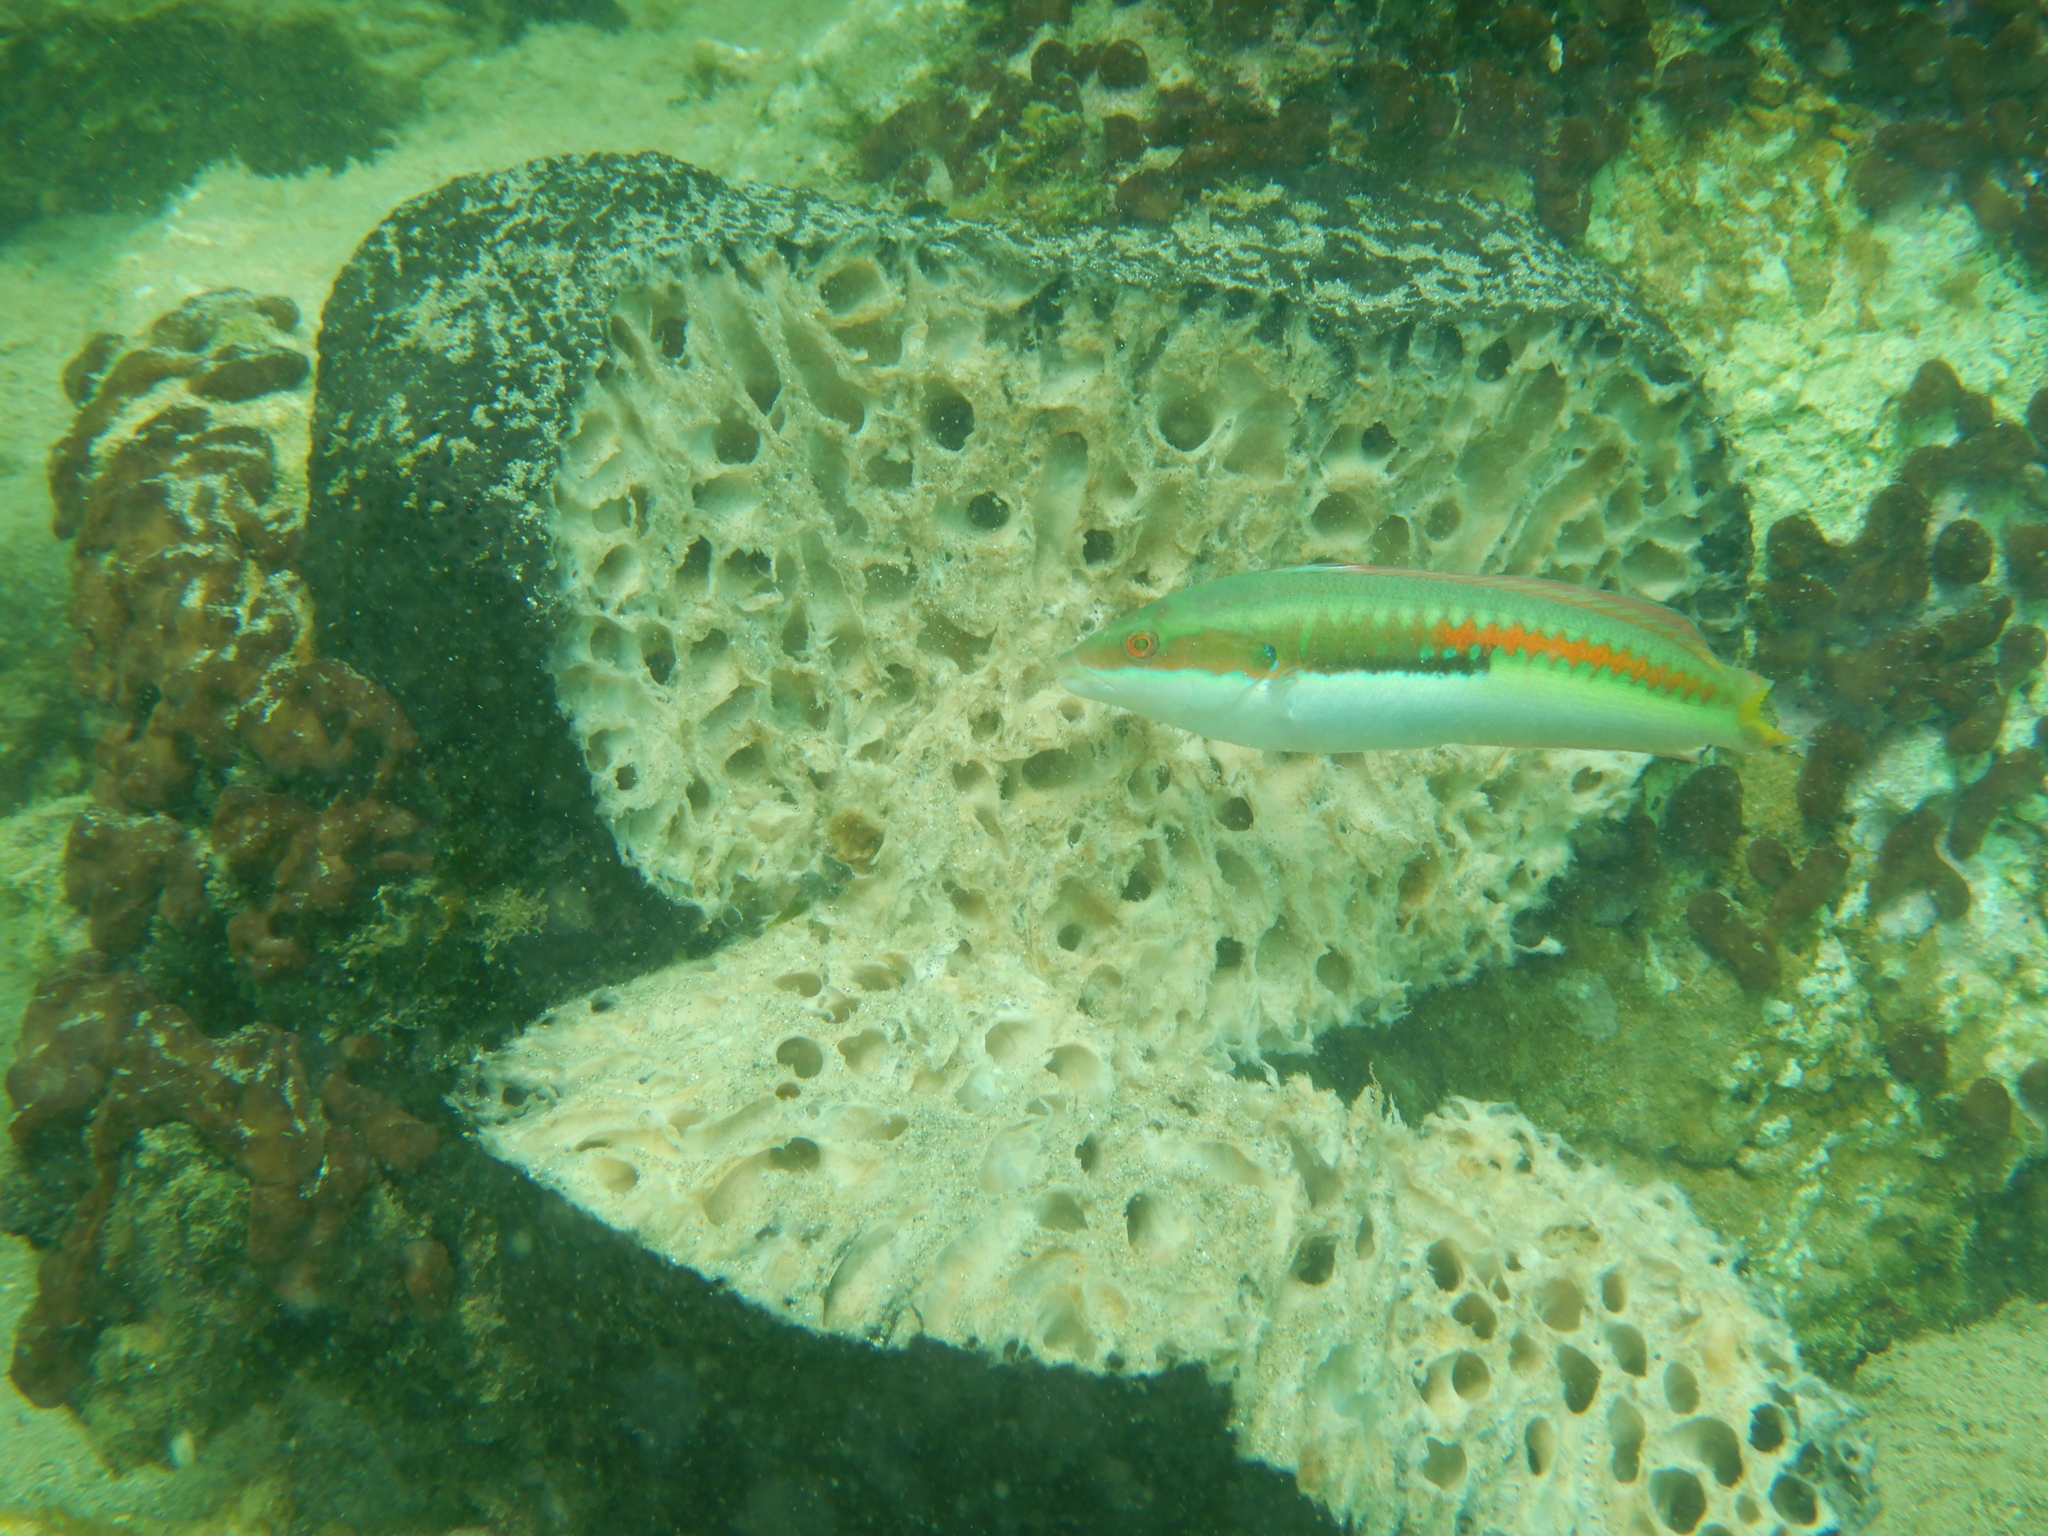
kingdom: Animalia
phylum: Chordata
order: Perciformes
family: Labridae
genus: Coris
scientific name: Coris julis
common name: Rainbow wrasse
